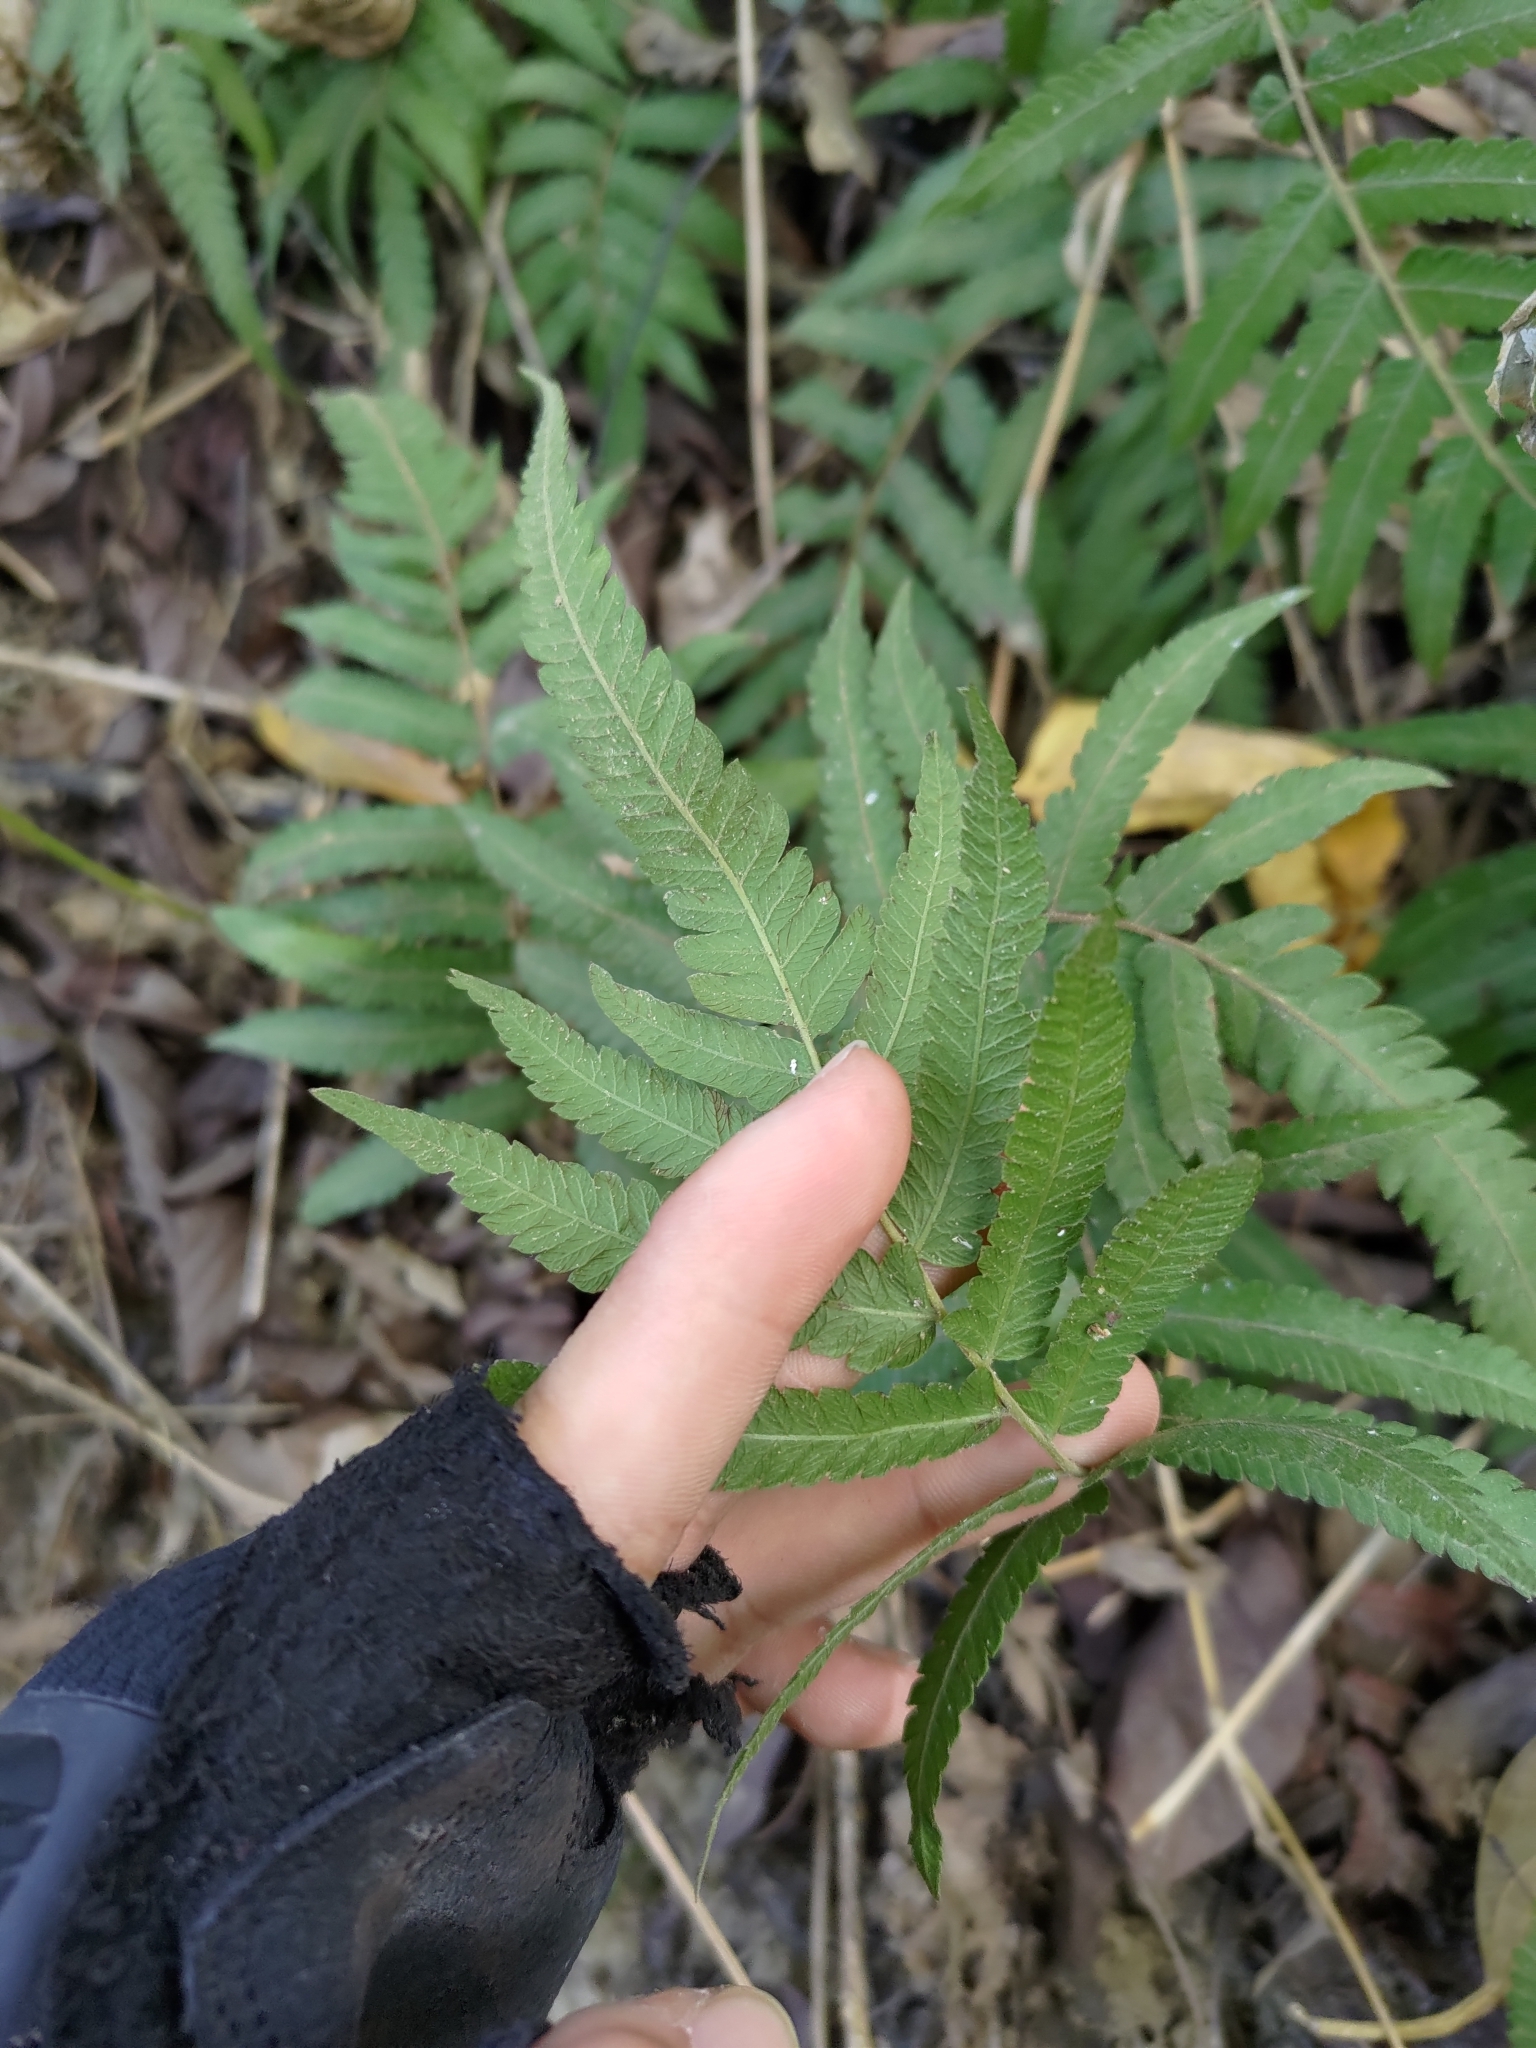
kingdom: Plantae
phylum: Tracheophyta
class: Polypodiopsida
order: Polypodiales
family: Thelypteridaceae
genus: Christella
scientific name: Christella acuminata
